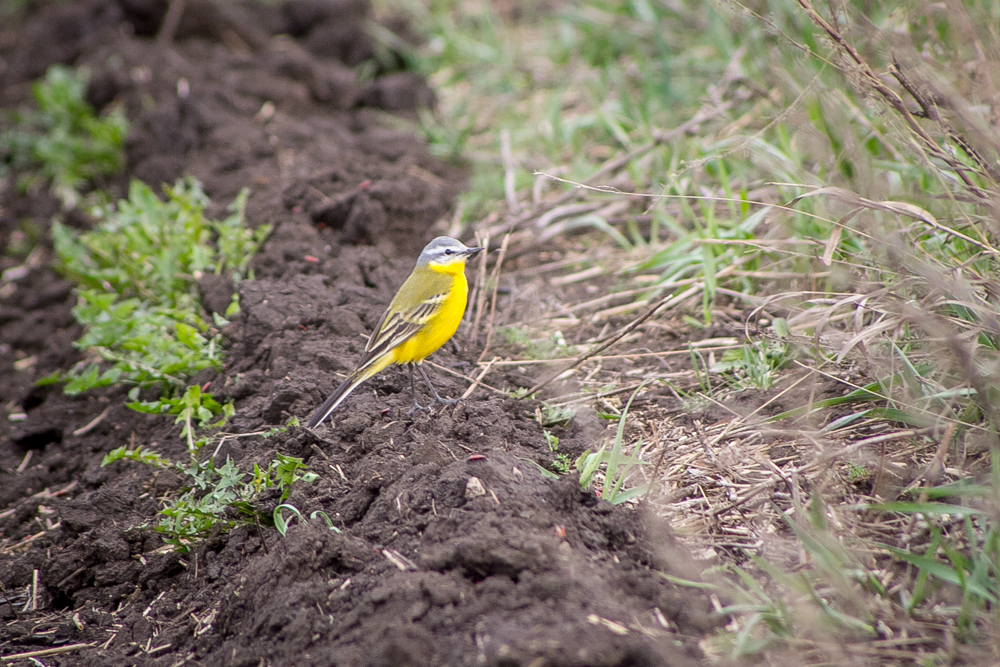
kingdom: Animalia
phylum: Chordata
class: Aves
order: Passeriformes
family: Motacillidae
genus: Motacilla
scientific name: Motacilla flava
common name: Western yellow wagtail
